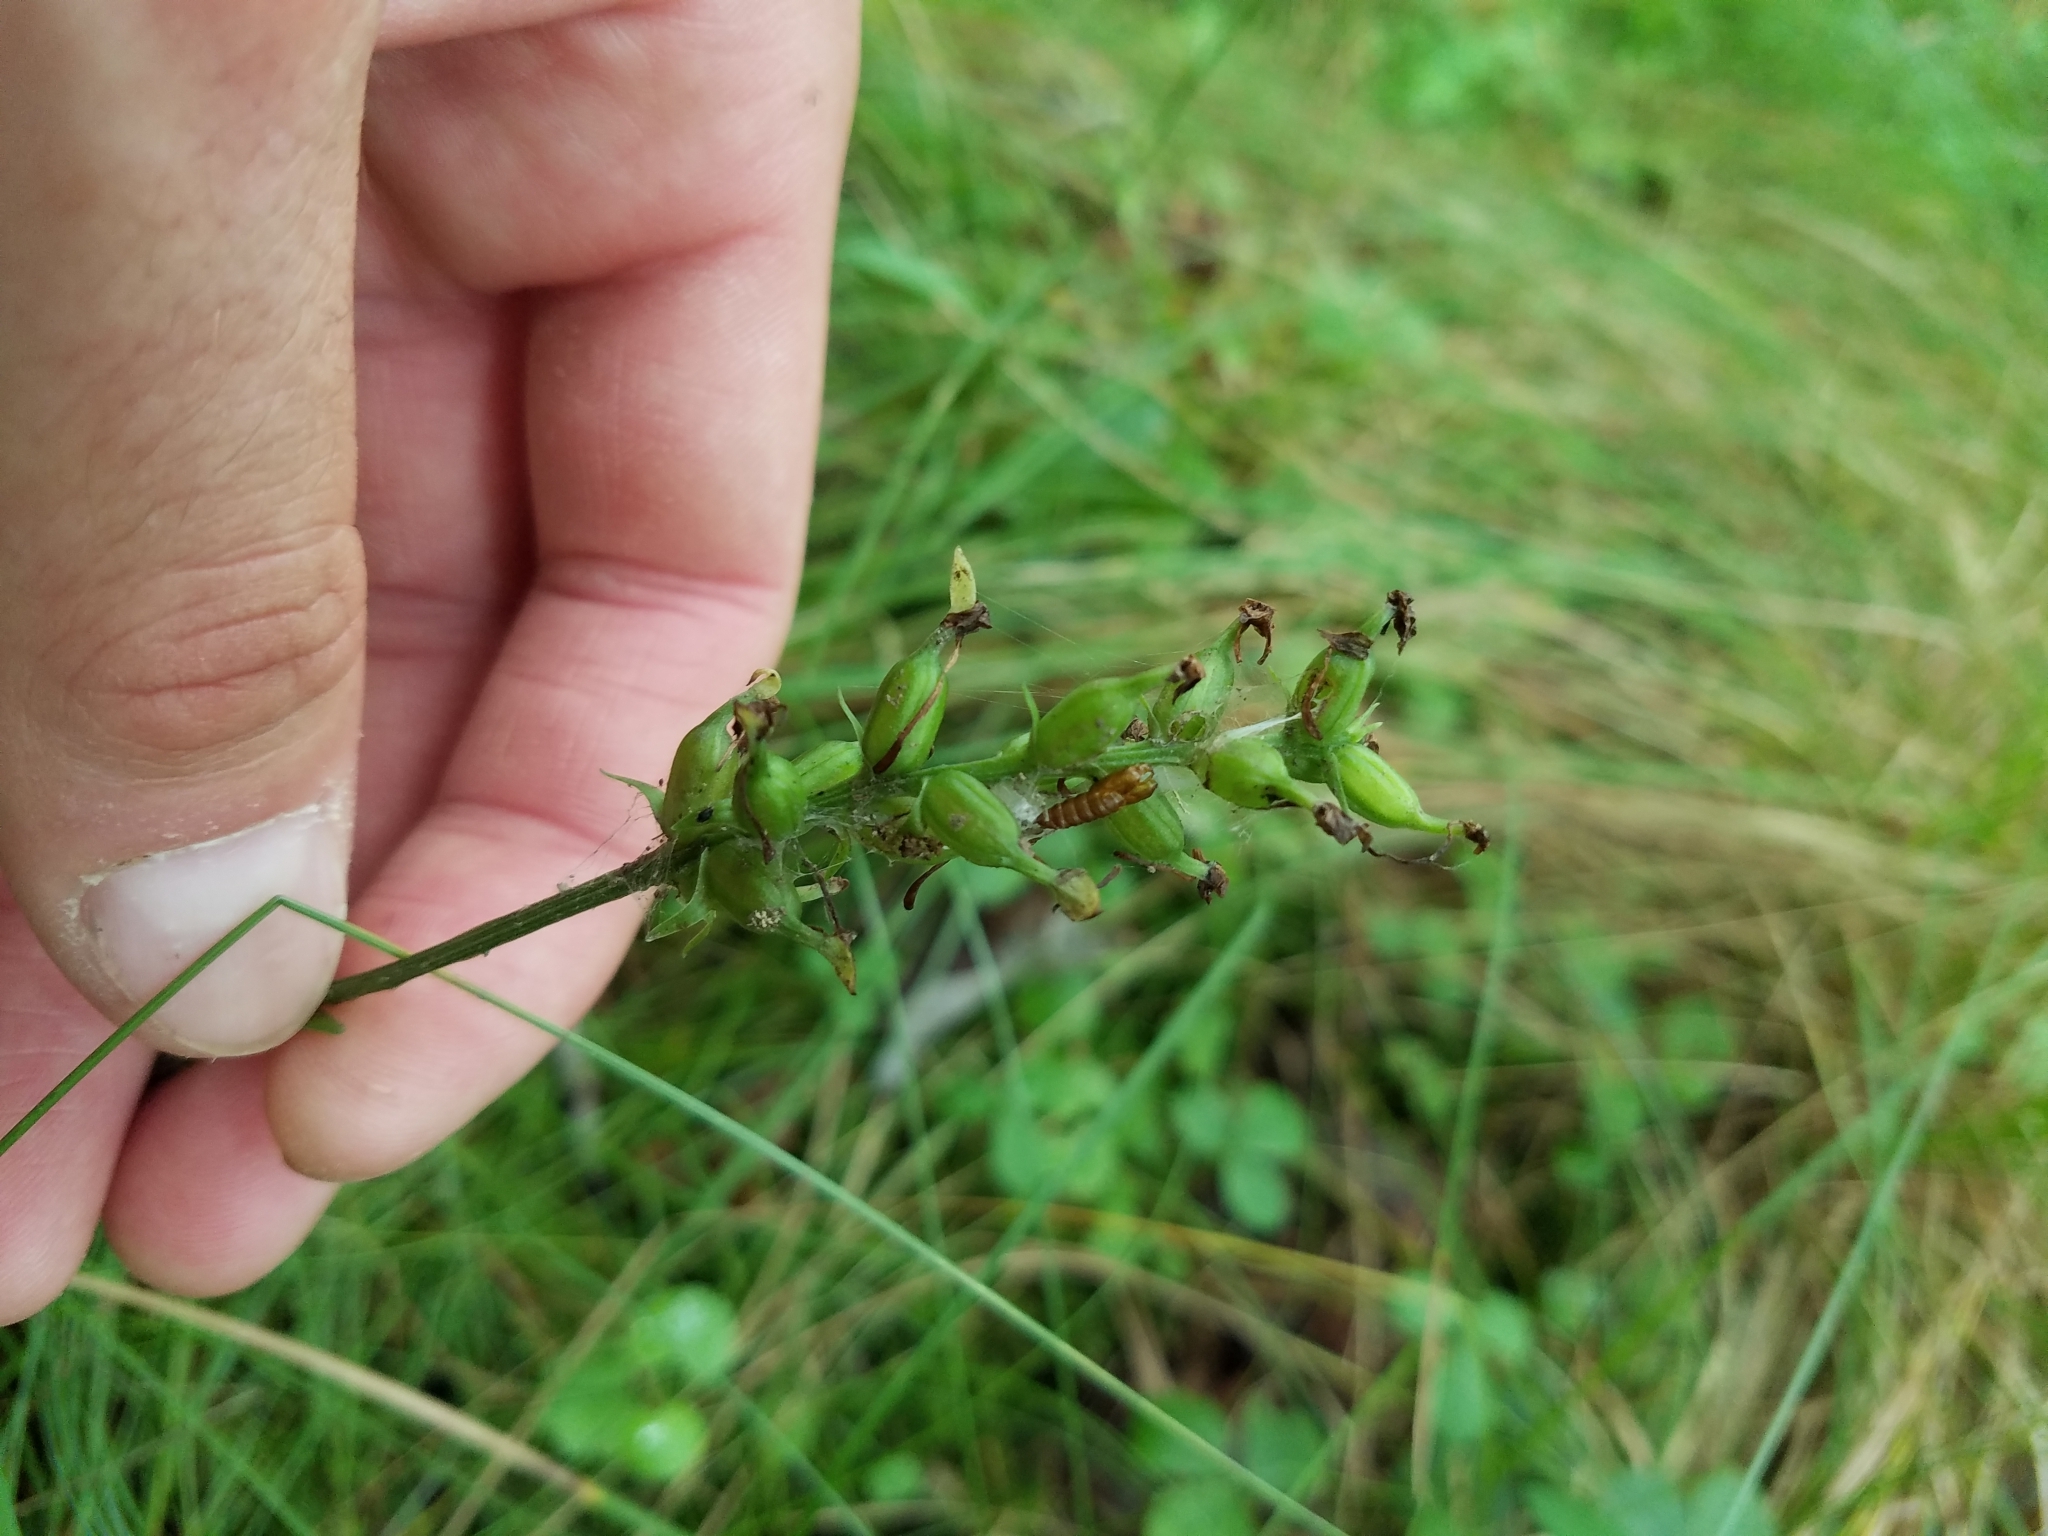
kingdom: Plantae
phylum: Tracheophyta
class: Liliopsida
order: Asparagales
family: Orchidaceae
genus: Platanthera
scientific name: Platanthera clavellata
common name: Club-spur orchid
